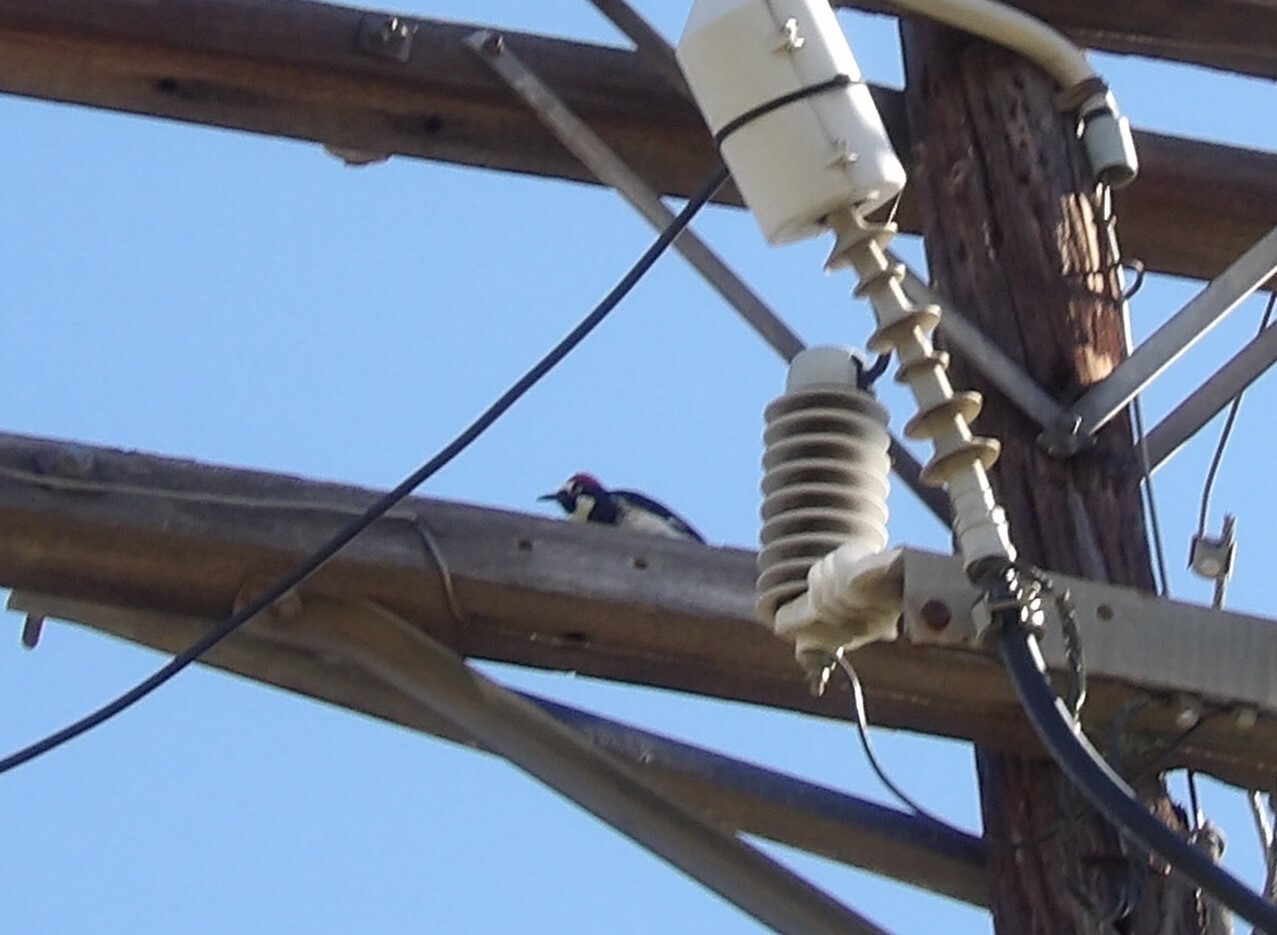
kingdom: Animalia
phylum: Chordata
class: Aves
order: Piciformes
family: Picidae
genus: Melanerpes
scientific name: Melanerpes formicivorus
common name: Acorn woodpecker
